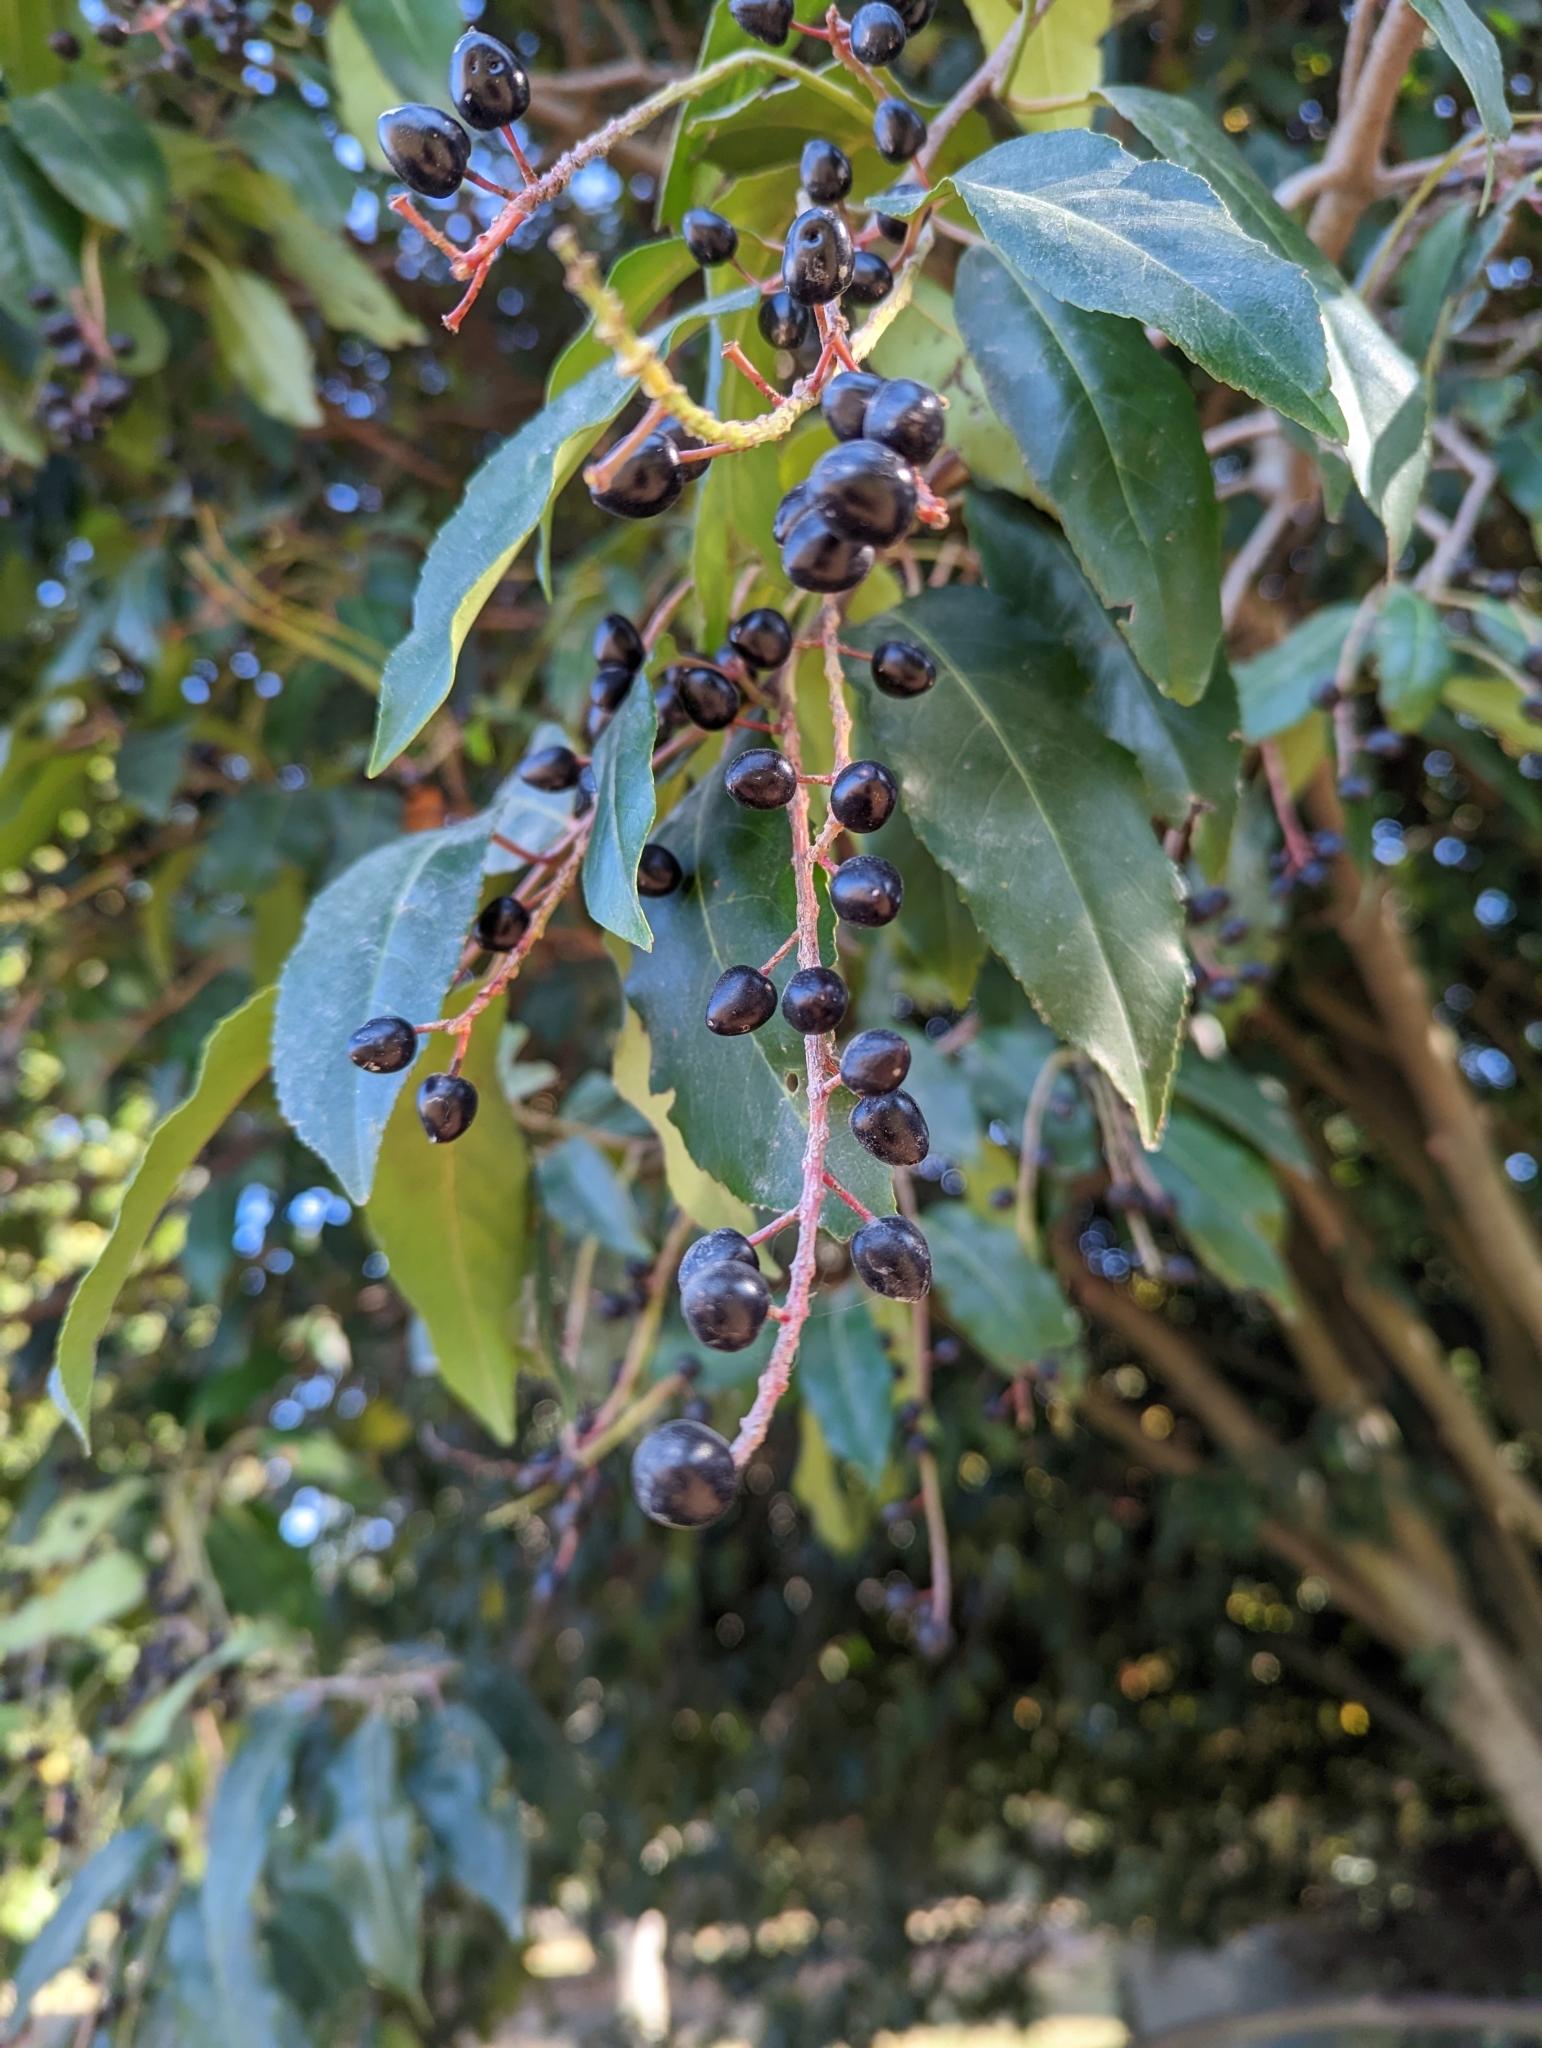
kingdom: Plantae
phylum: Tracheophyta
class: Magnoliopsida
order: Rosales
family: Rosaceae
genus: Prunus
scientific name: Prunus lusitanica
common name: Portugal laurel
